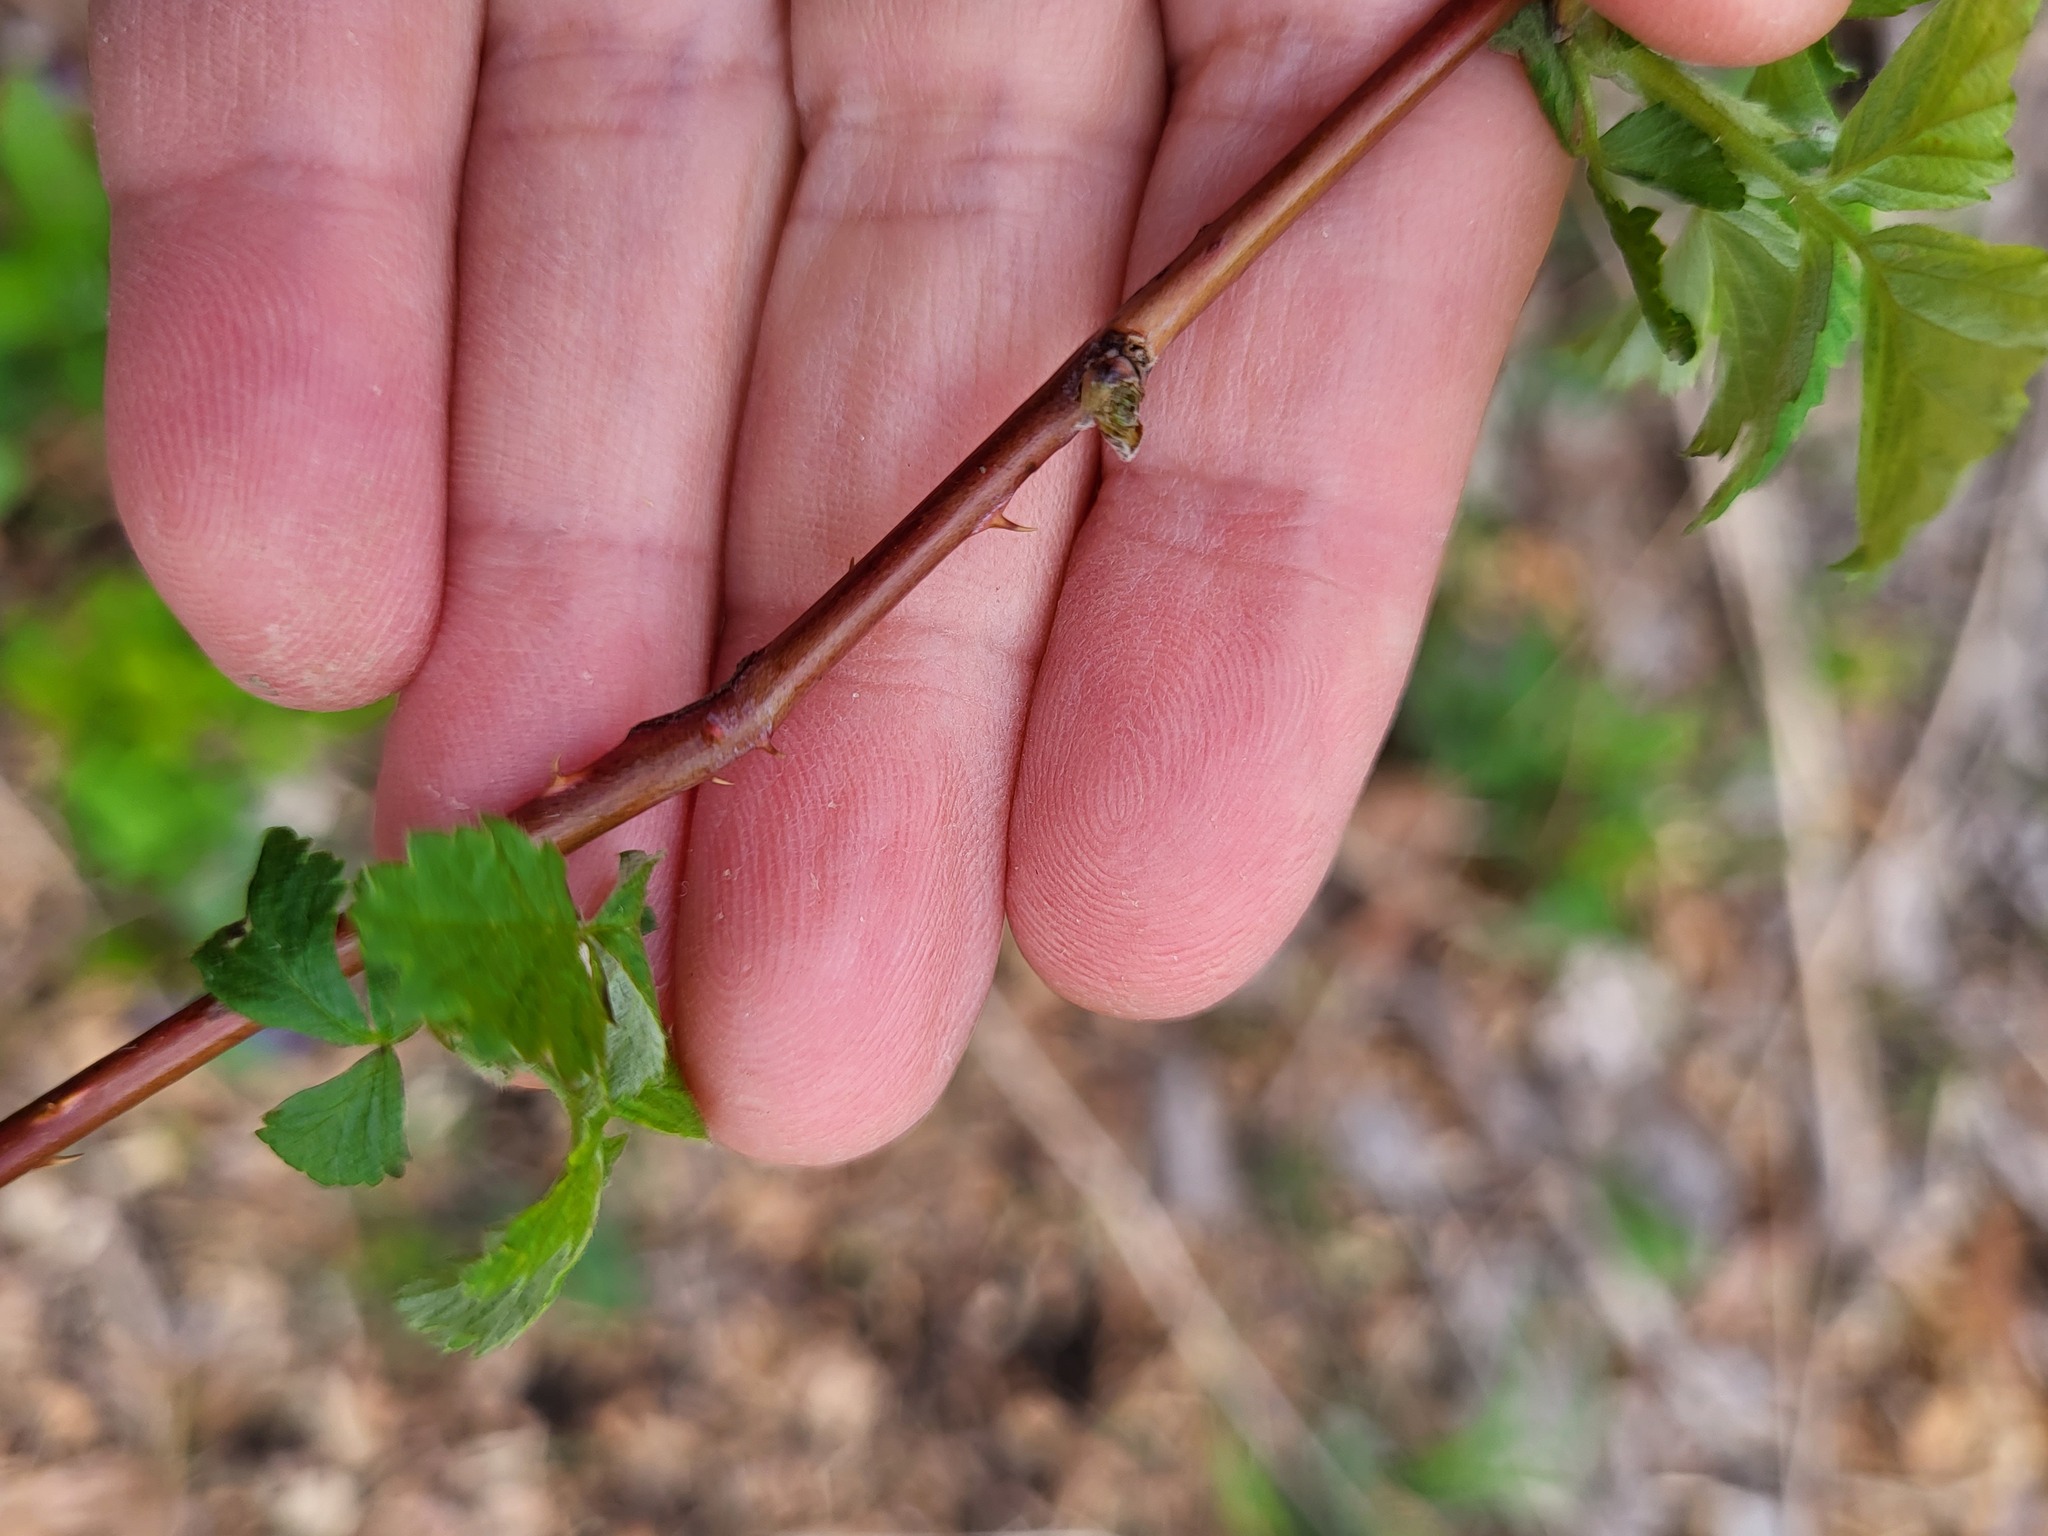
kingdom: Plantae
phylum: Tracheophyta
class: Magnoliopsida
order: Rosales
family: Rosaceae
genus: Rubus
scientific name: Rubus occidentalis
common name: Black raspberry
